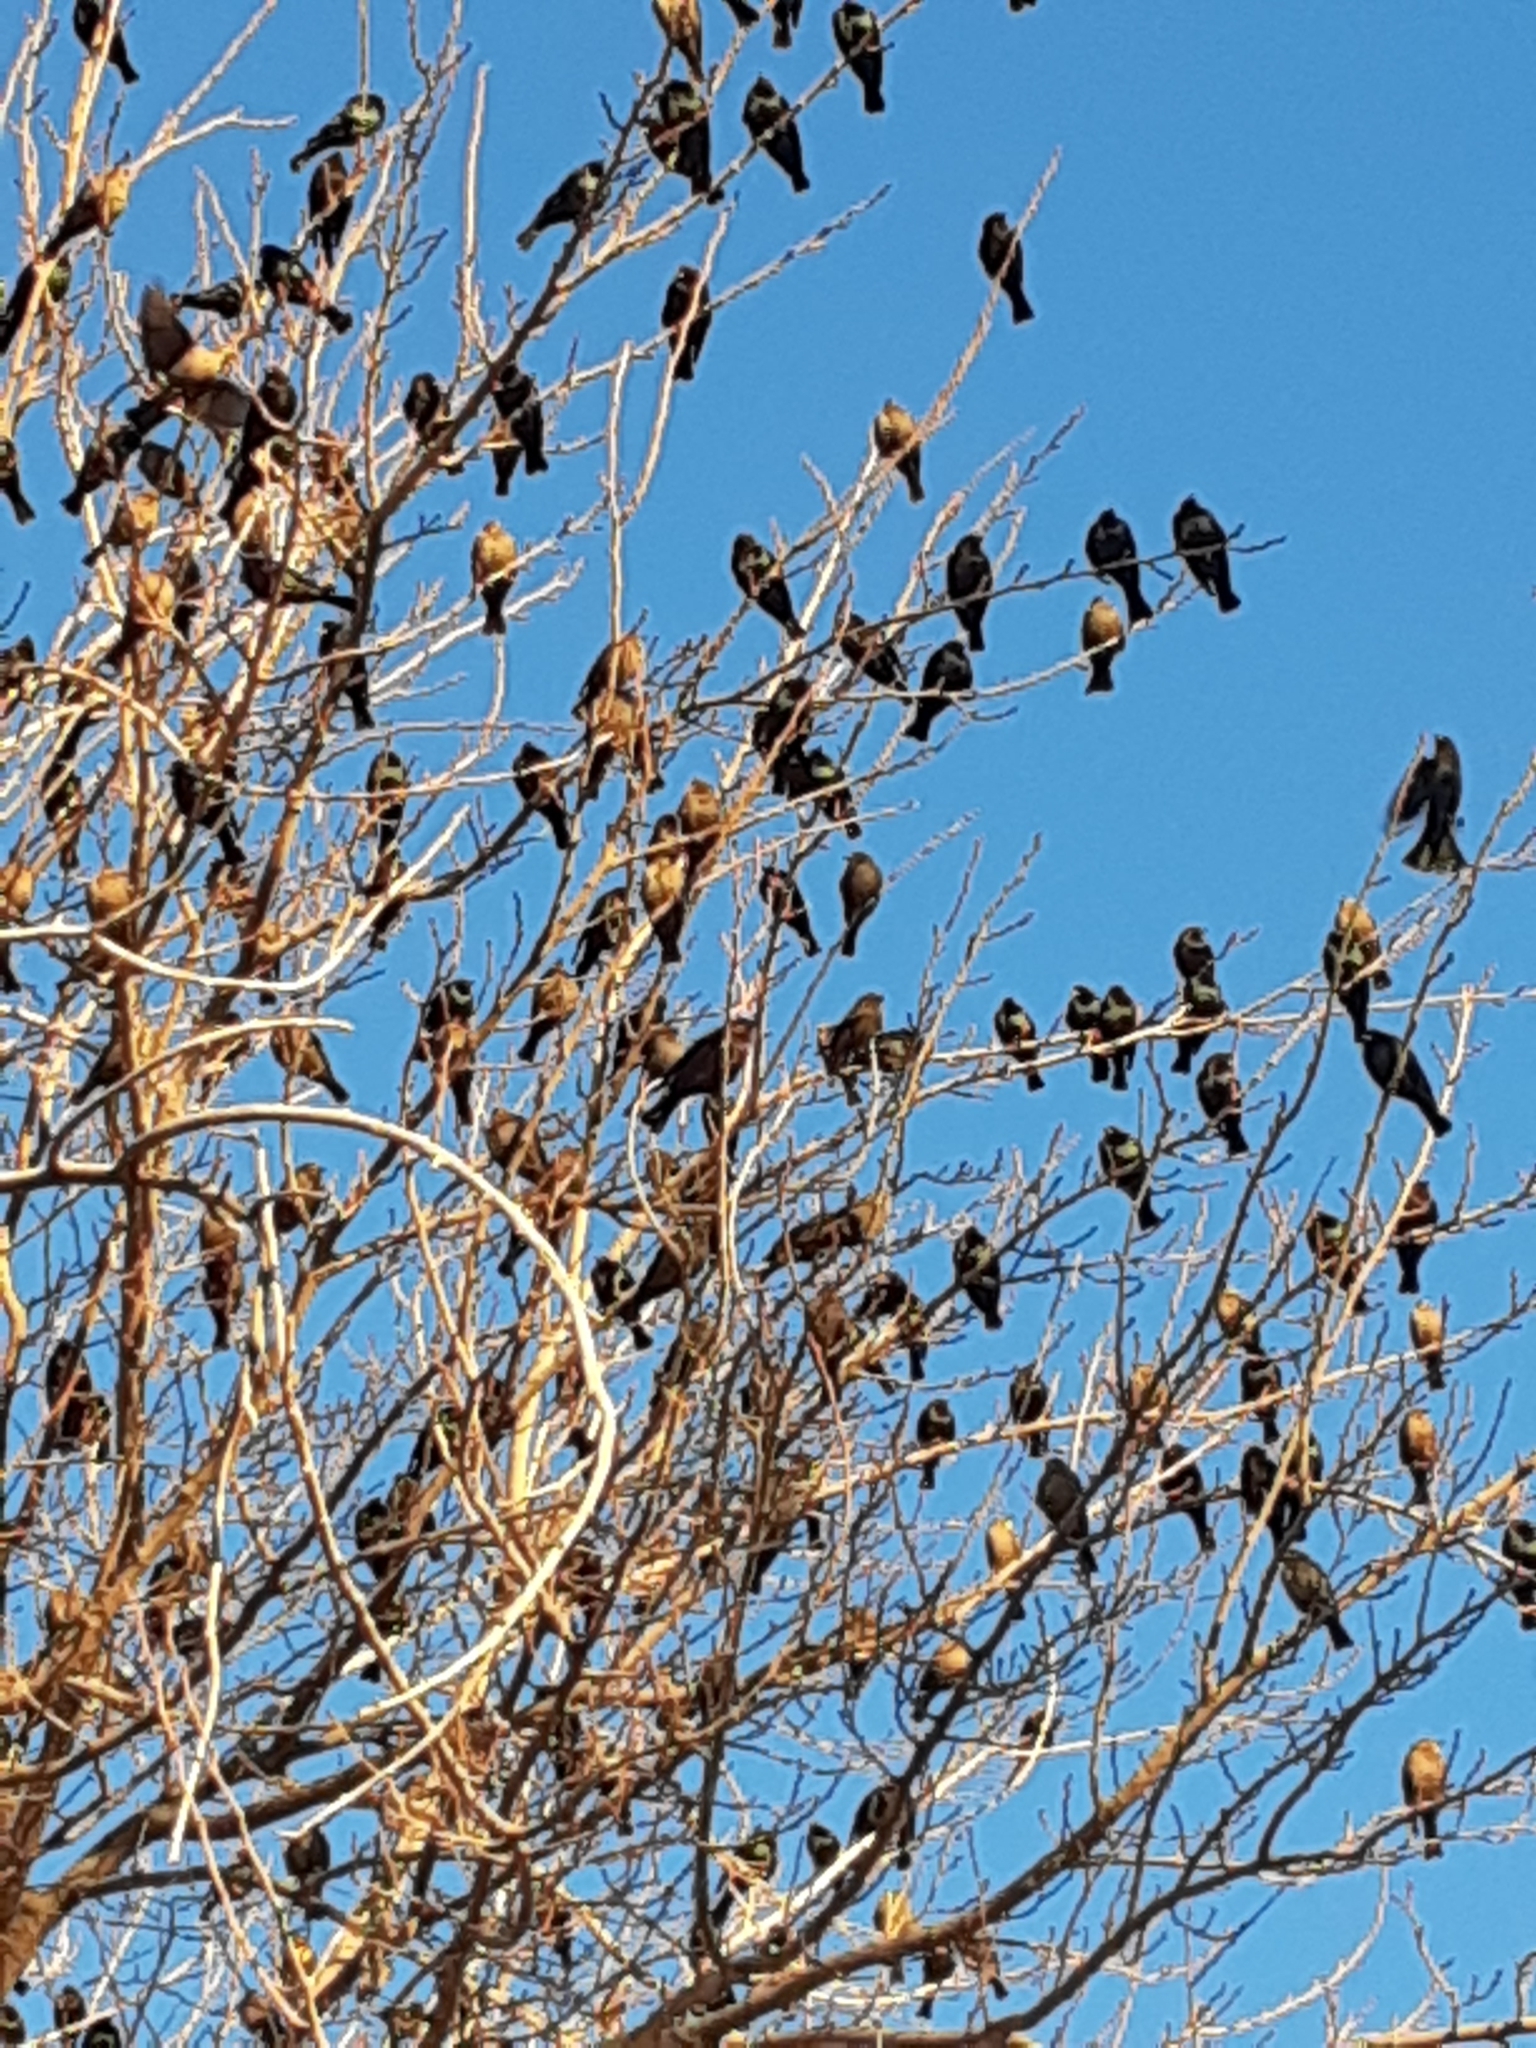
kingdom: Animalia
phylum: Chordata
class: Aves
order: Passeriformes
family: Sturnidae
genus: Sturnus
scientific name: Sturnus vulgaris
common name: Common starling
